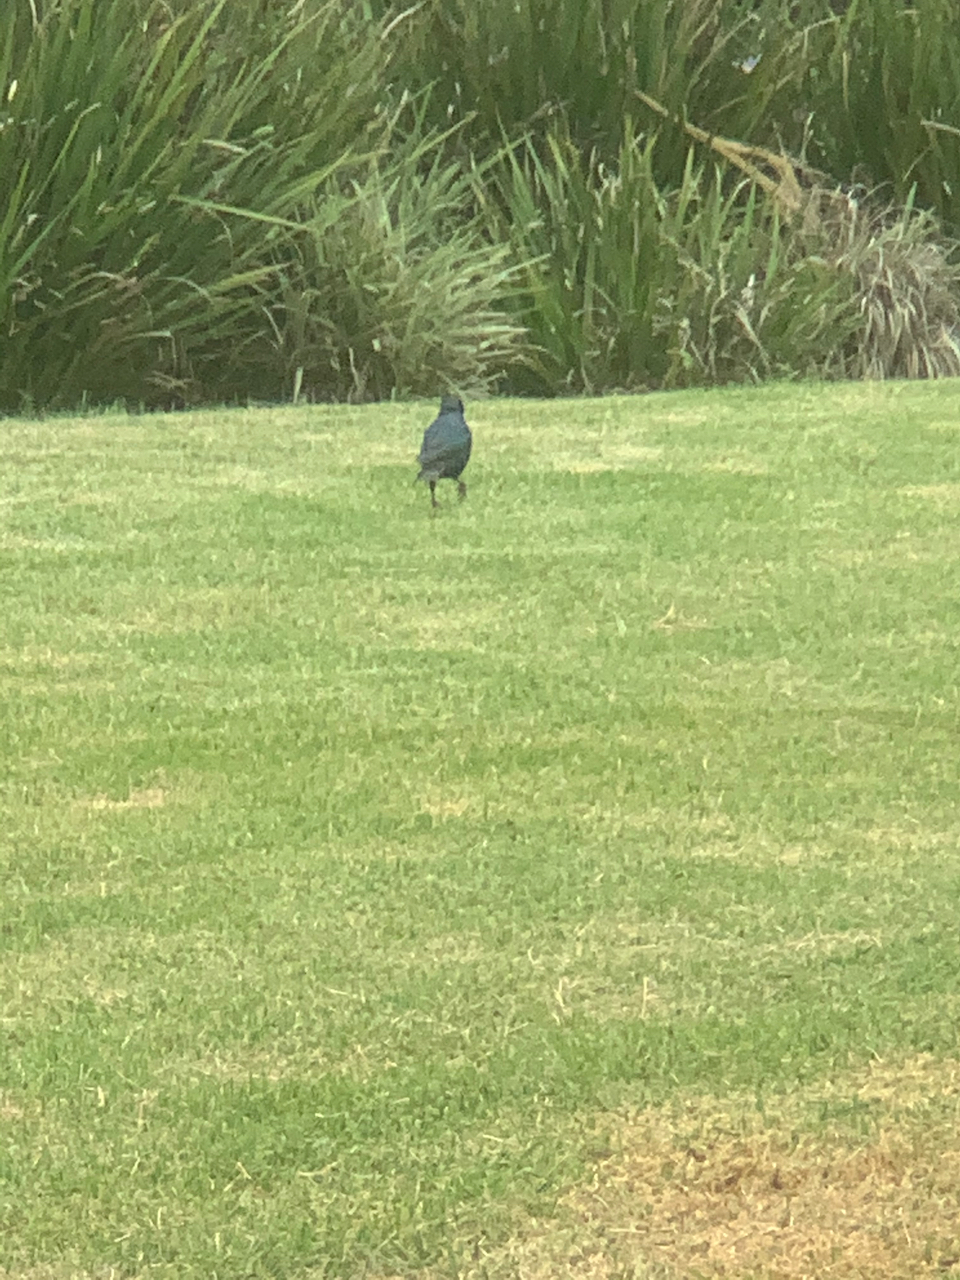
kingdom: Animalia
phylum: Chordata
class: Aves
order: Passeriformes
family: Sturnidae
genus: Lamprotornis
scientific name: Lamprotornis nitens
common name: Cape starling
